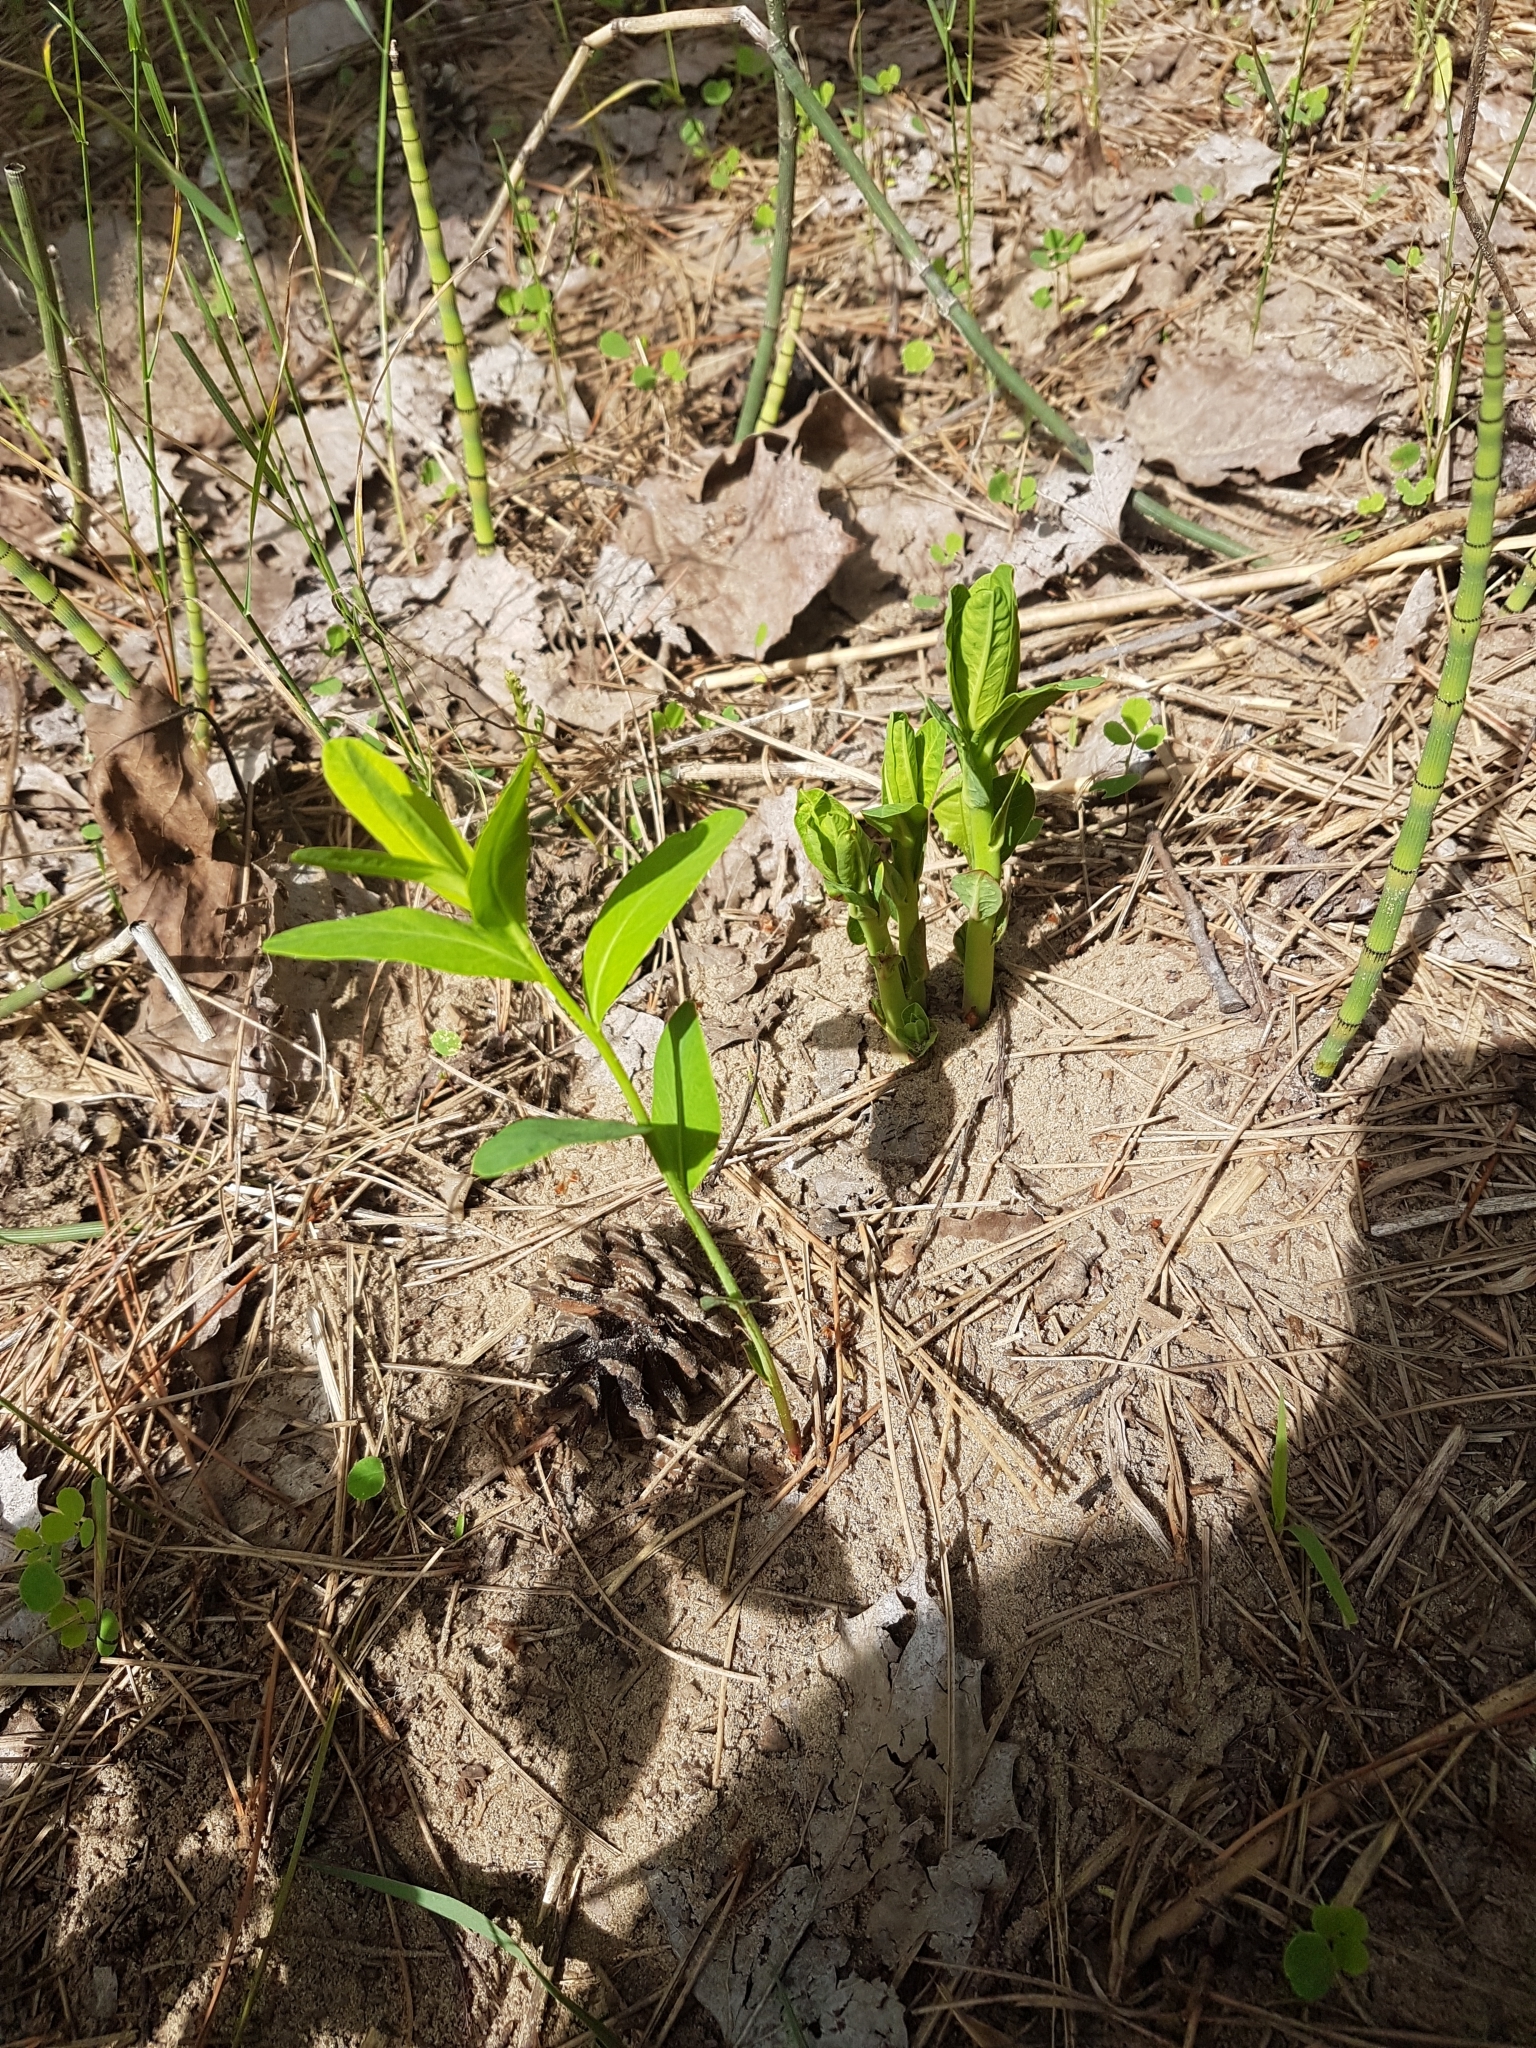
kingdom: Plantae
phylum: Tracheophyta
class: Magnoliopsida
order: Malpighiales
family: Euphorbiaceae
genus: Euphorbia
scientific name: Euphorbia corollata
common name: Flowering spurge
